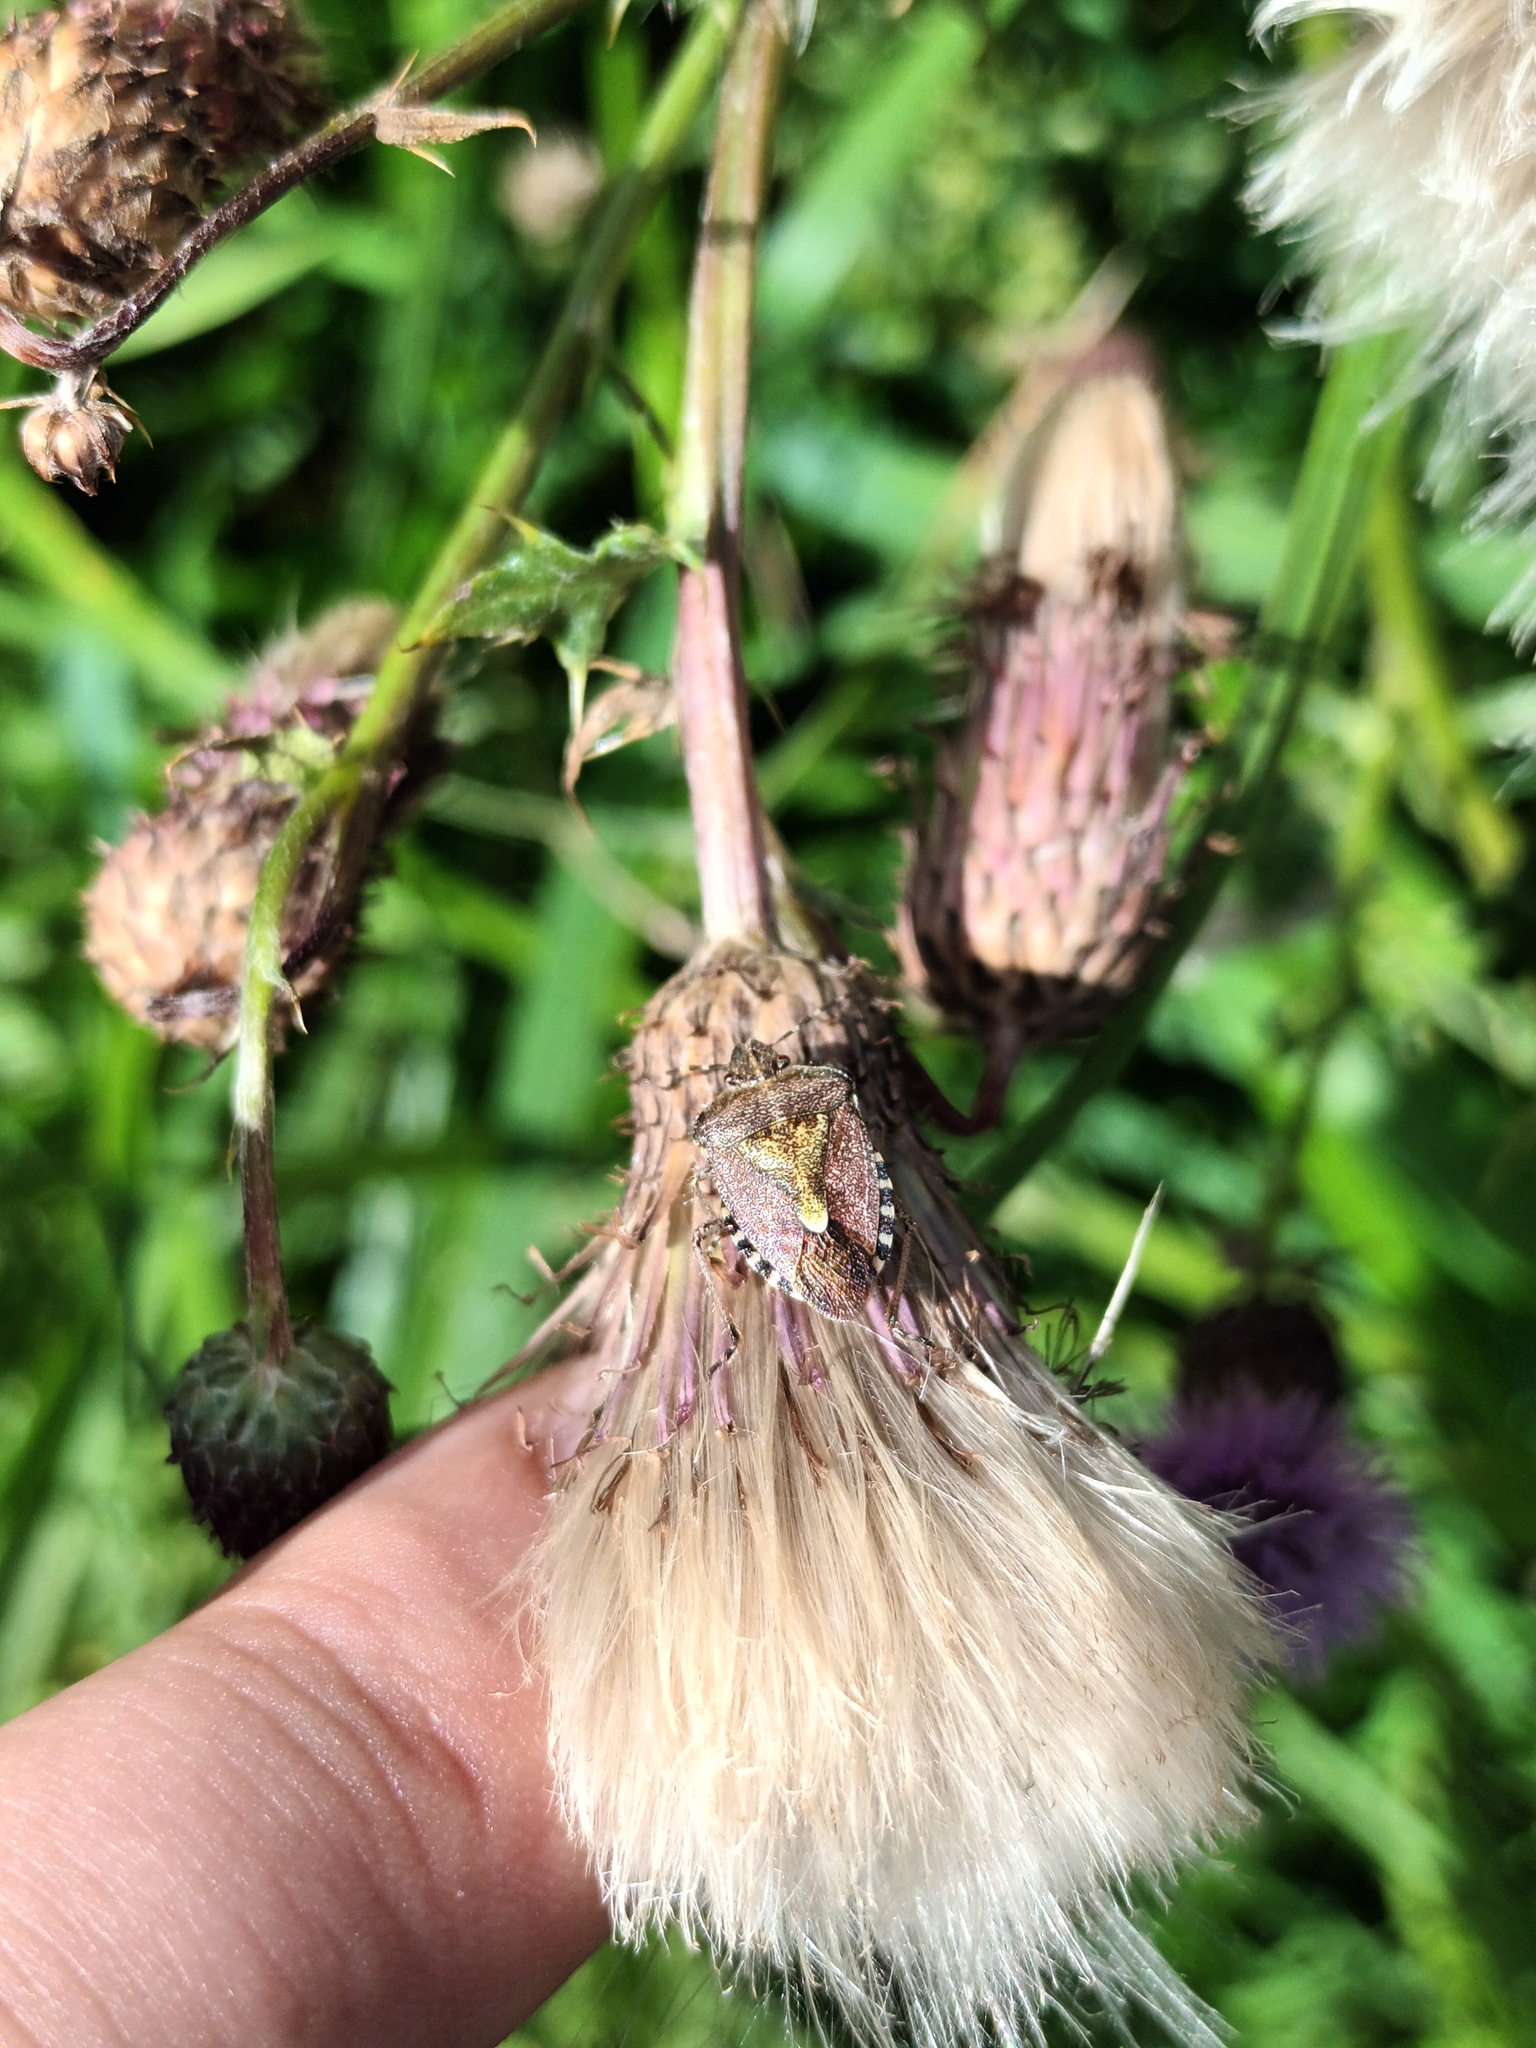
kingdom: Animalia
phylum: Arthropoda
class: Insecta
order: Hemiptera
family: Pentatomidae
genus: Dolycoris
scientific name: Dolycoris baccarum
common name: Sloe bug
